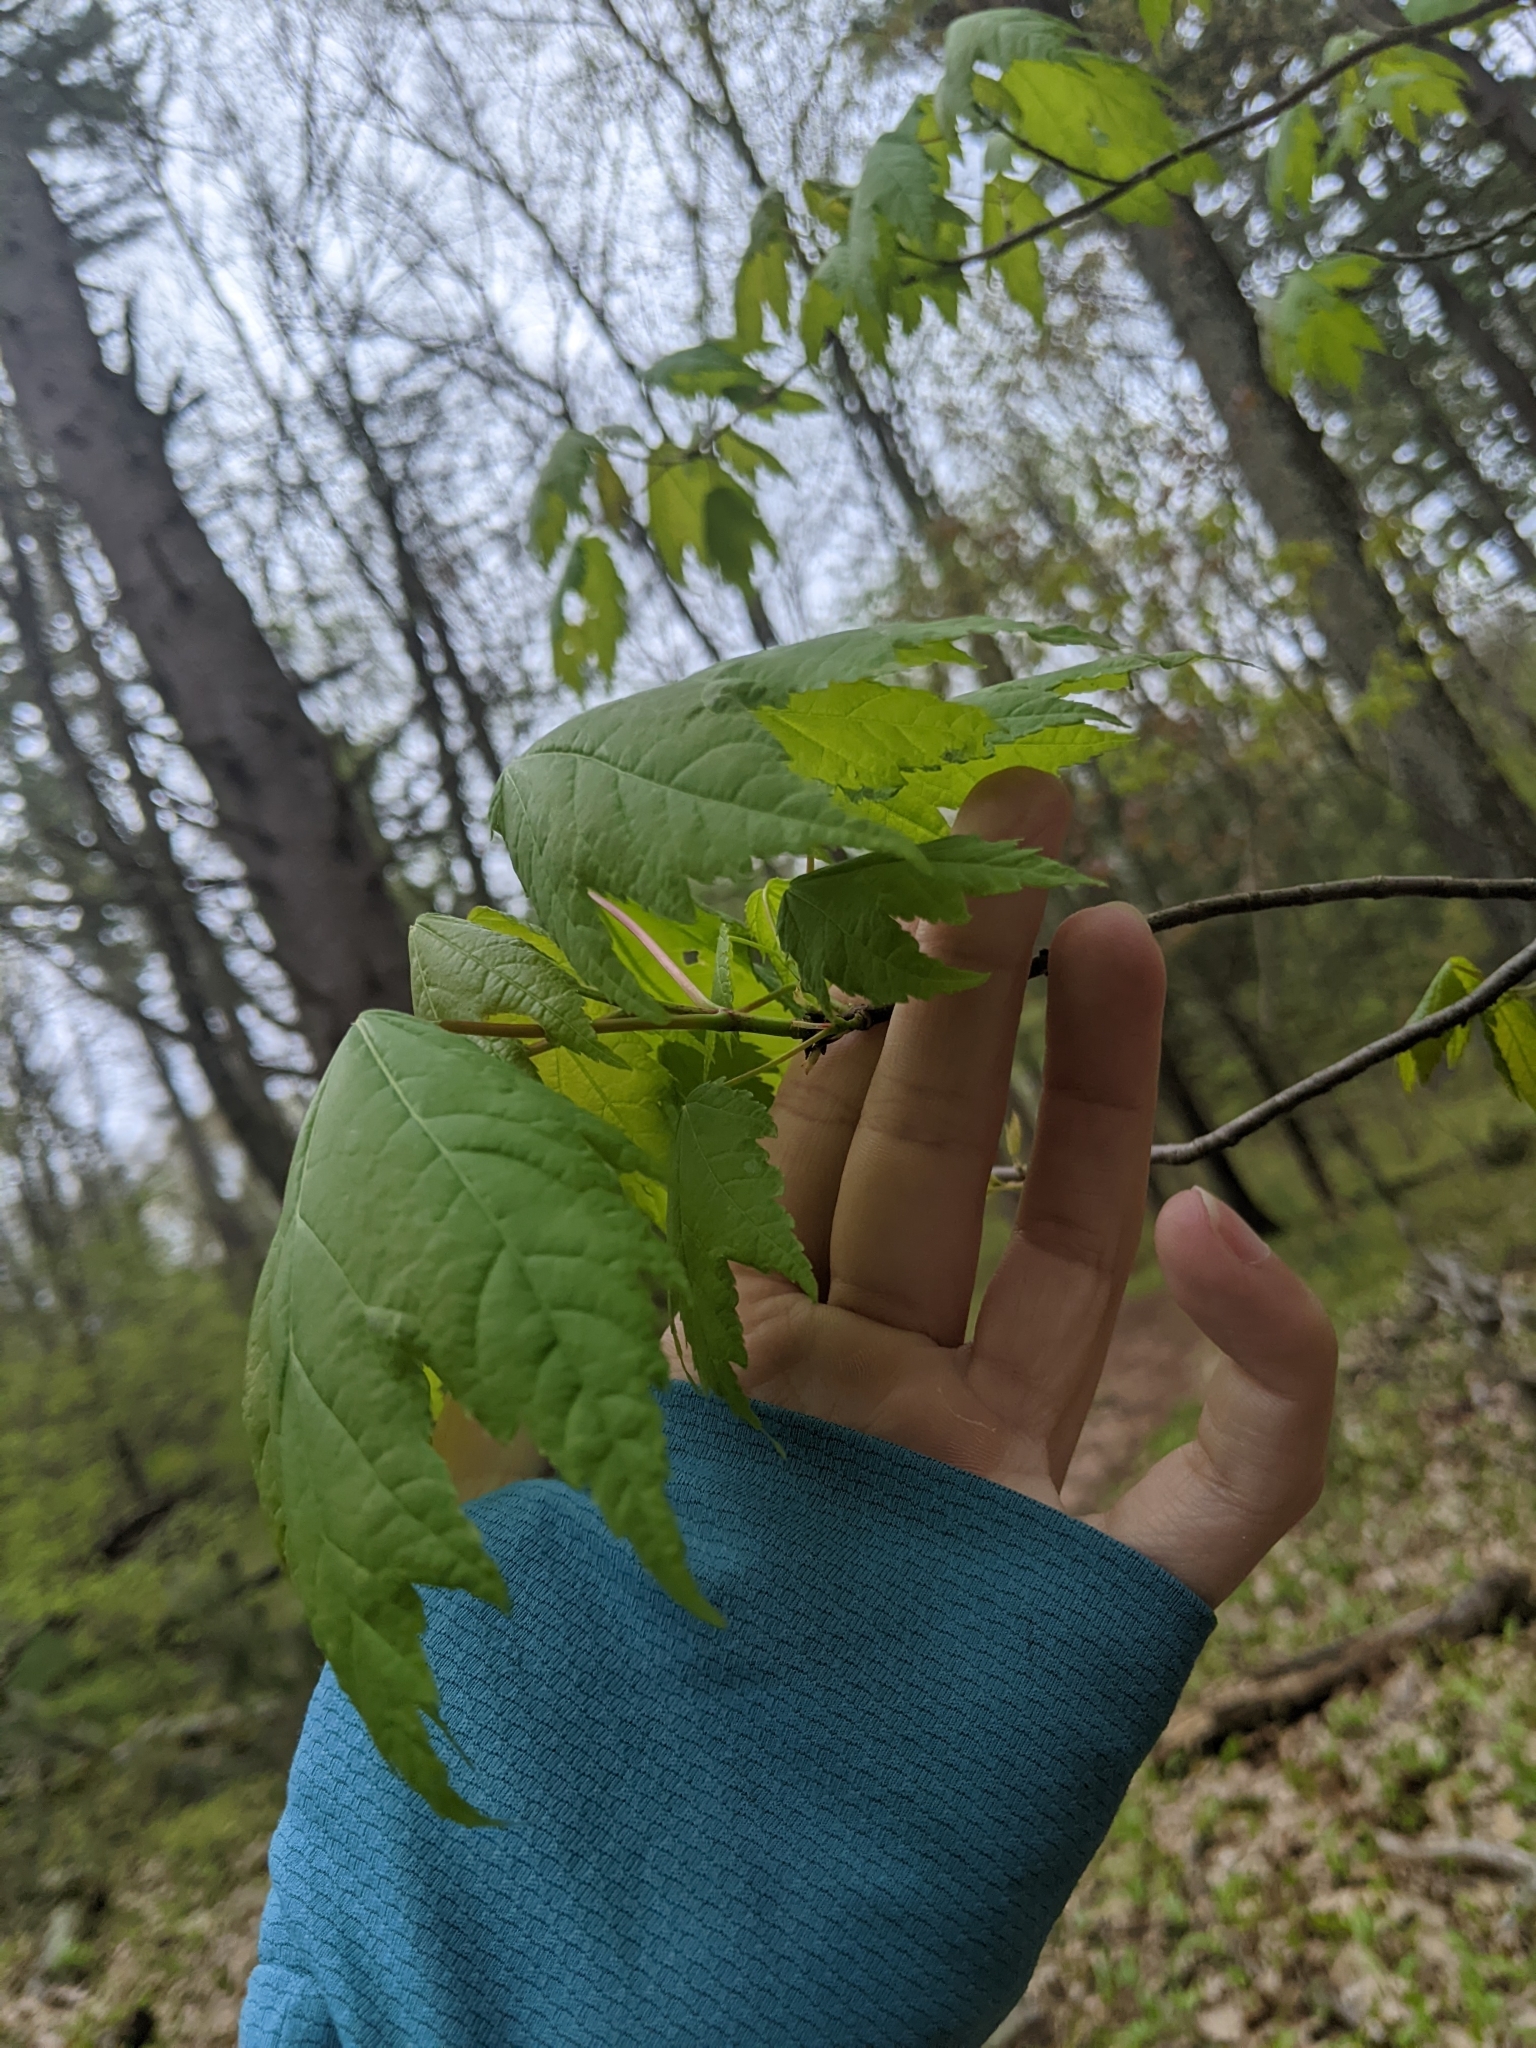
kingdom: Plantae
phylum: Tracheophyta
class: Magnoliopsida
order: Sapindales
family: Sapindaceae
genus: Acer
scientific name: Acer saccharum
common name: Sugar maple
